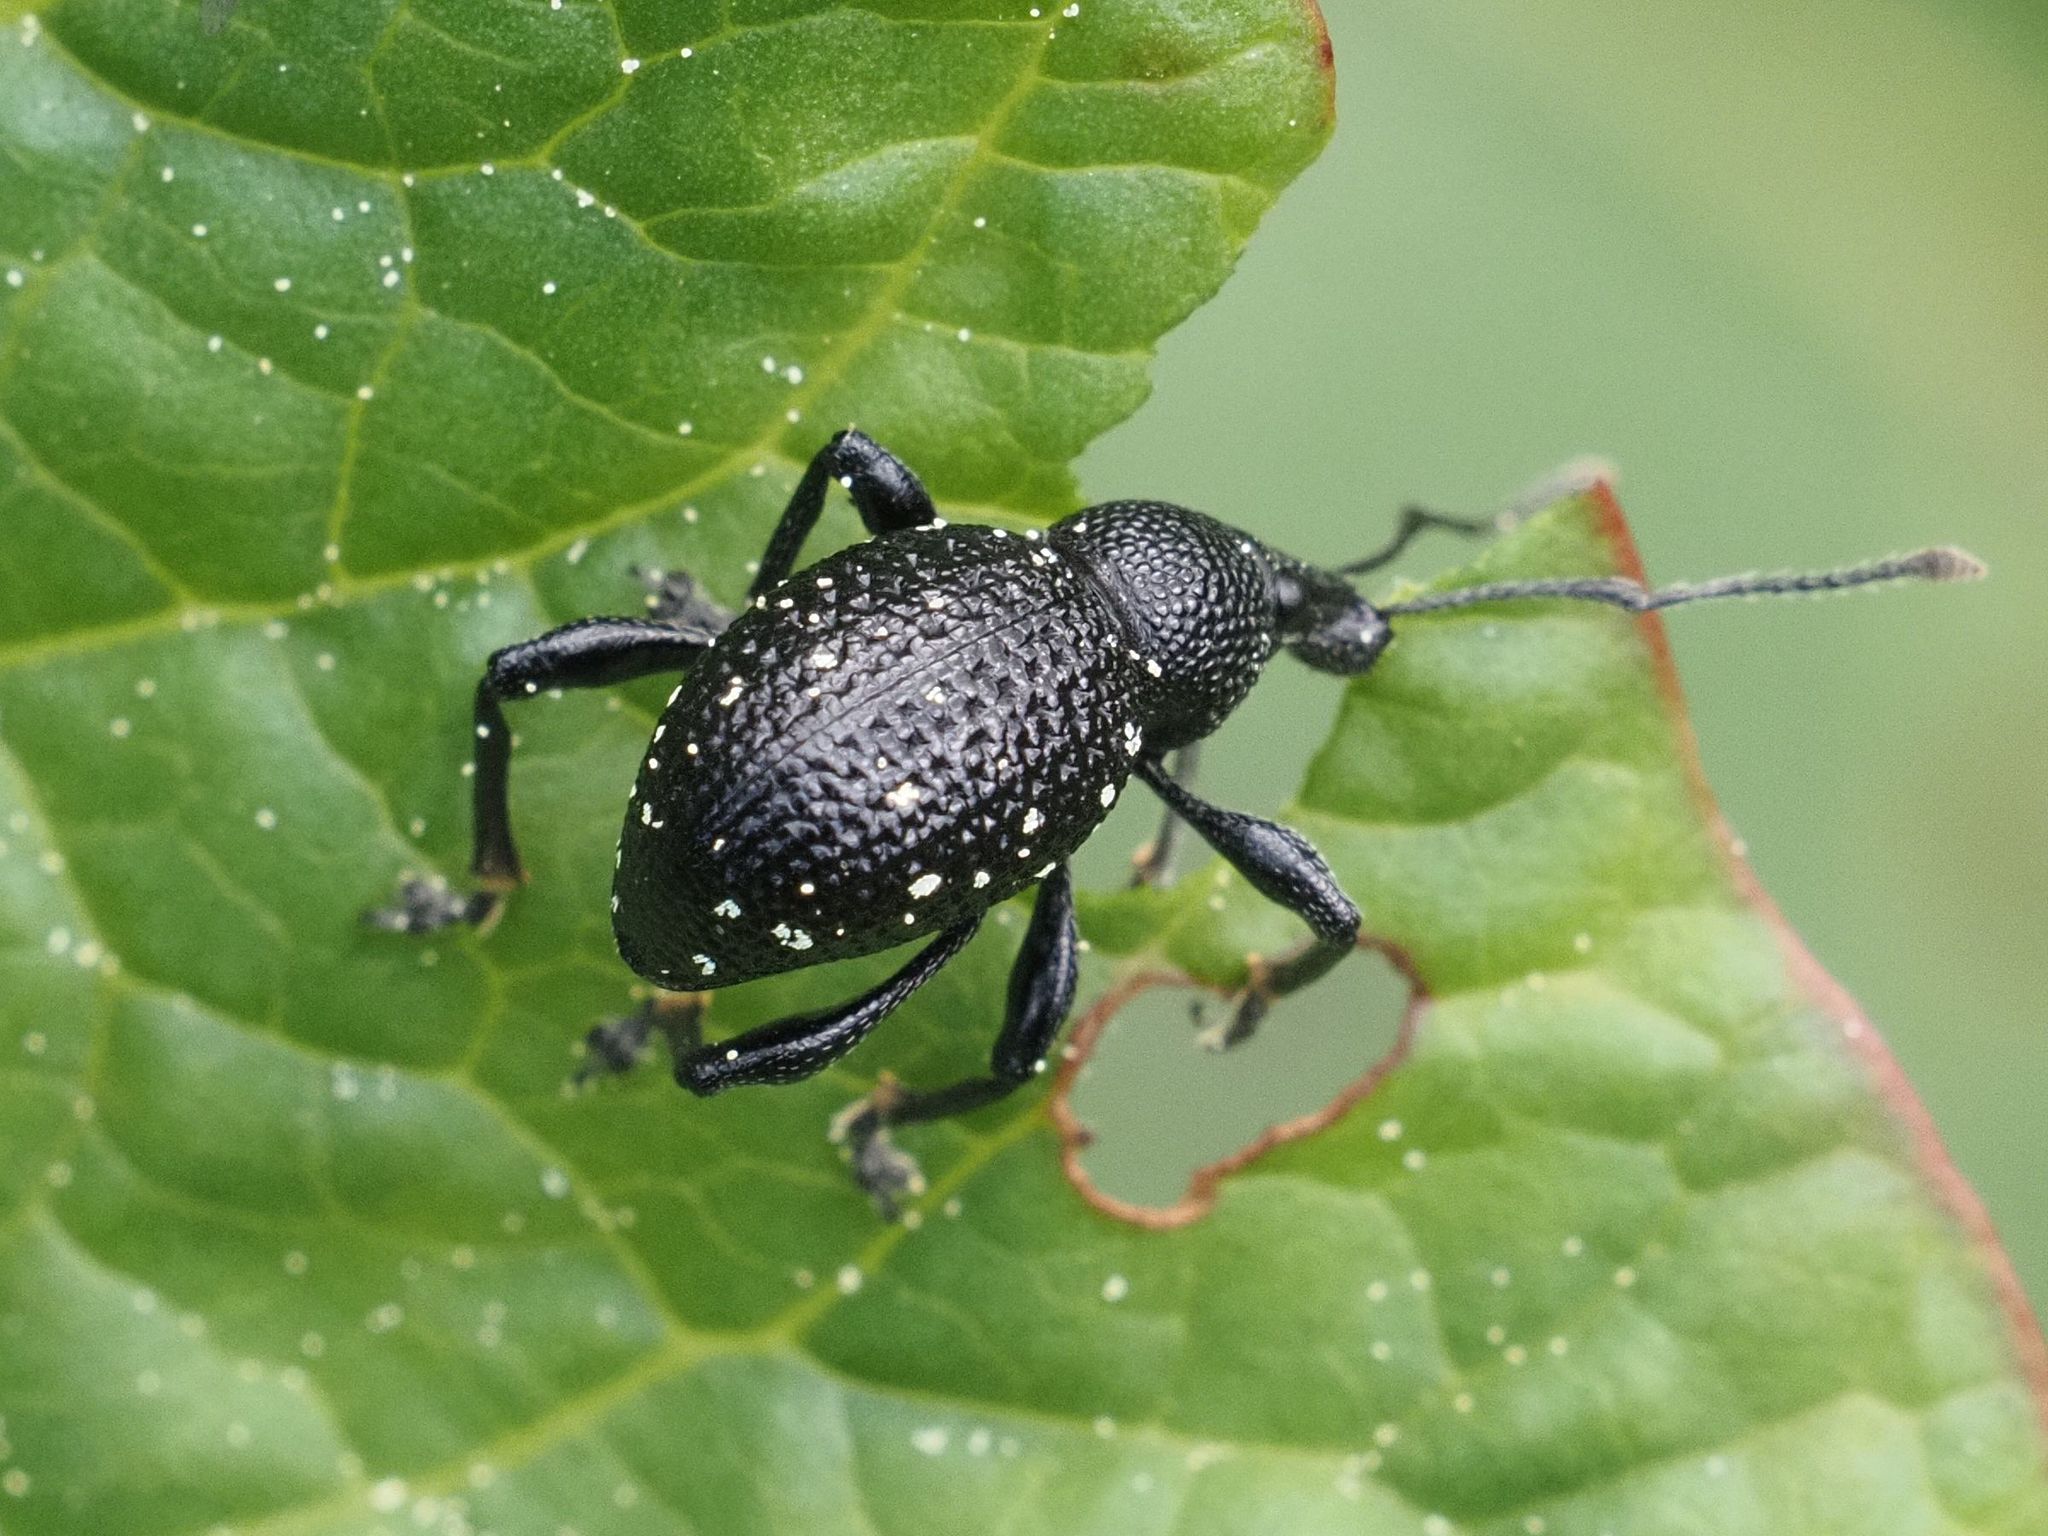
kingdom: Animalia
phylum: Arthropoda
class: Insecta
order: Coleoptera
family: Curculionidae
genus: Otiorhynchus
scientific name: Otiorhynchus gemmatus
